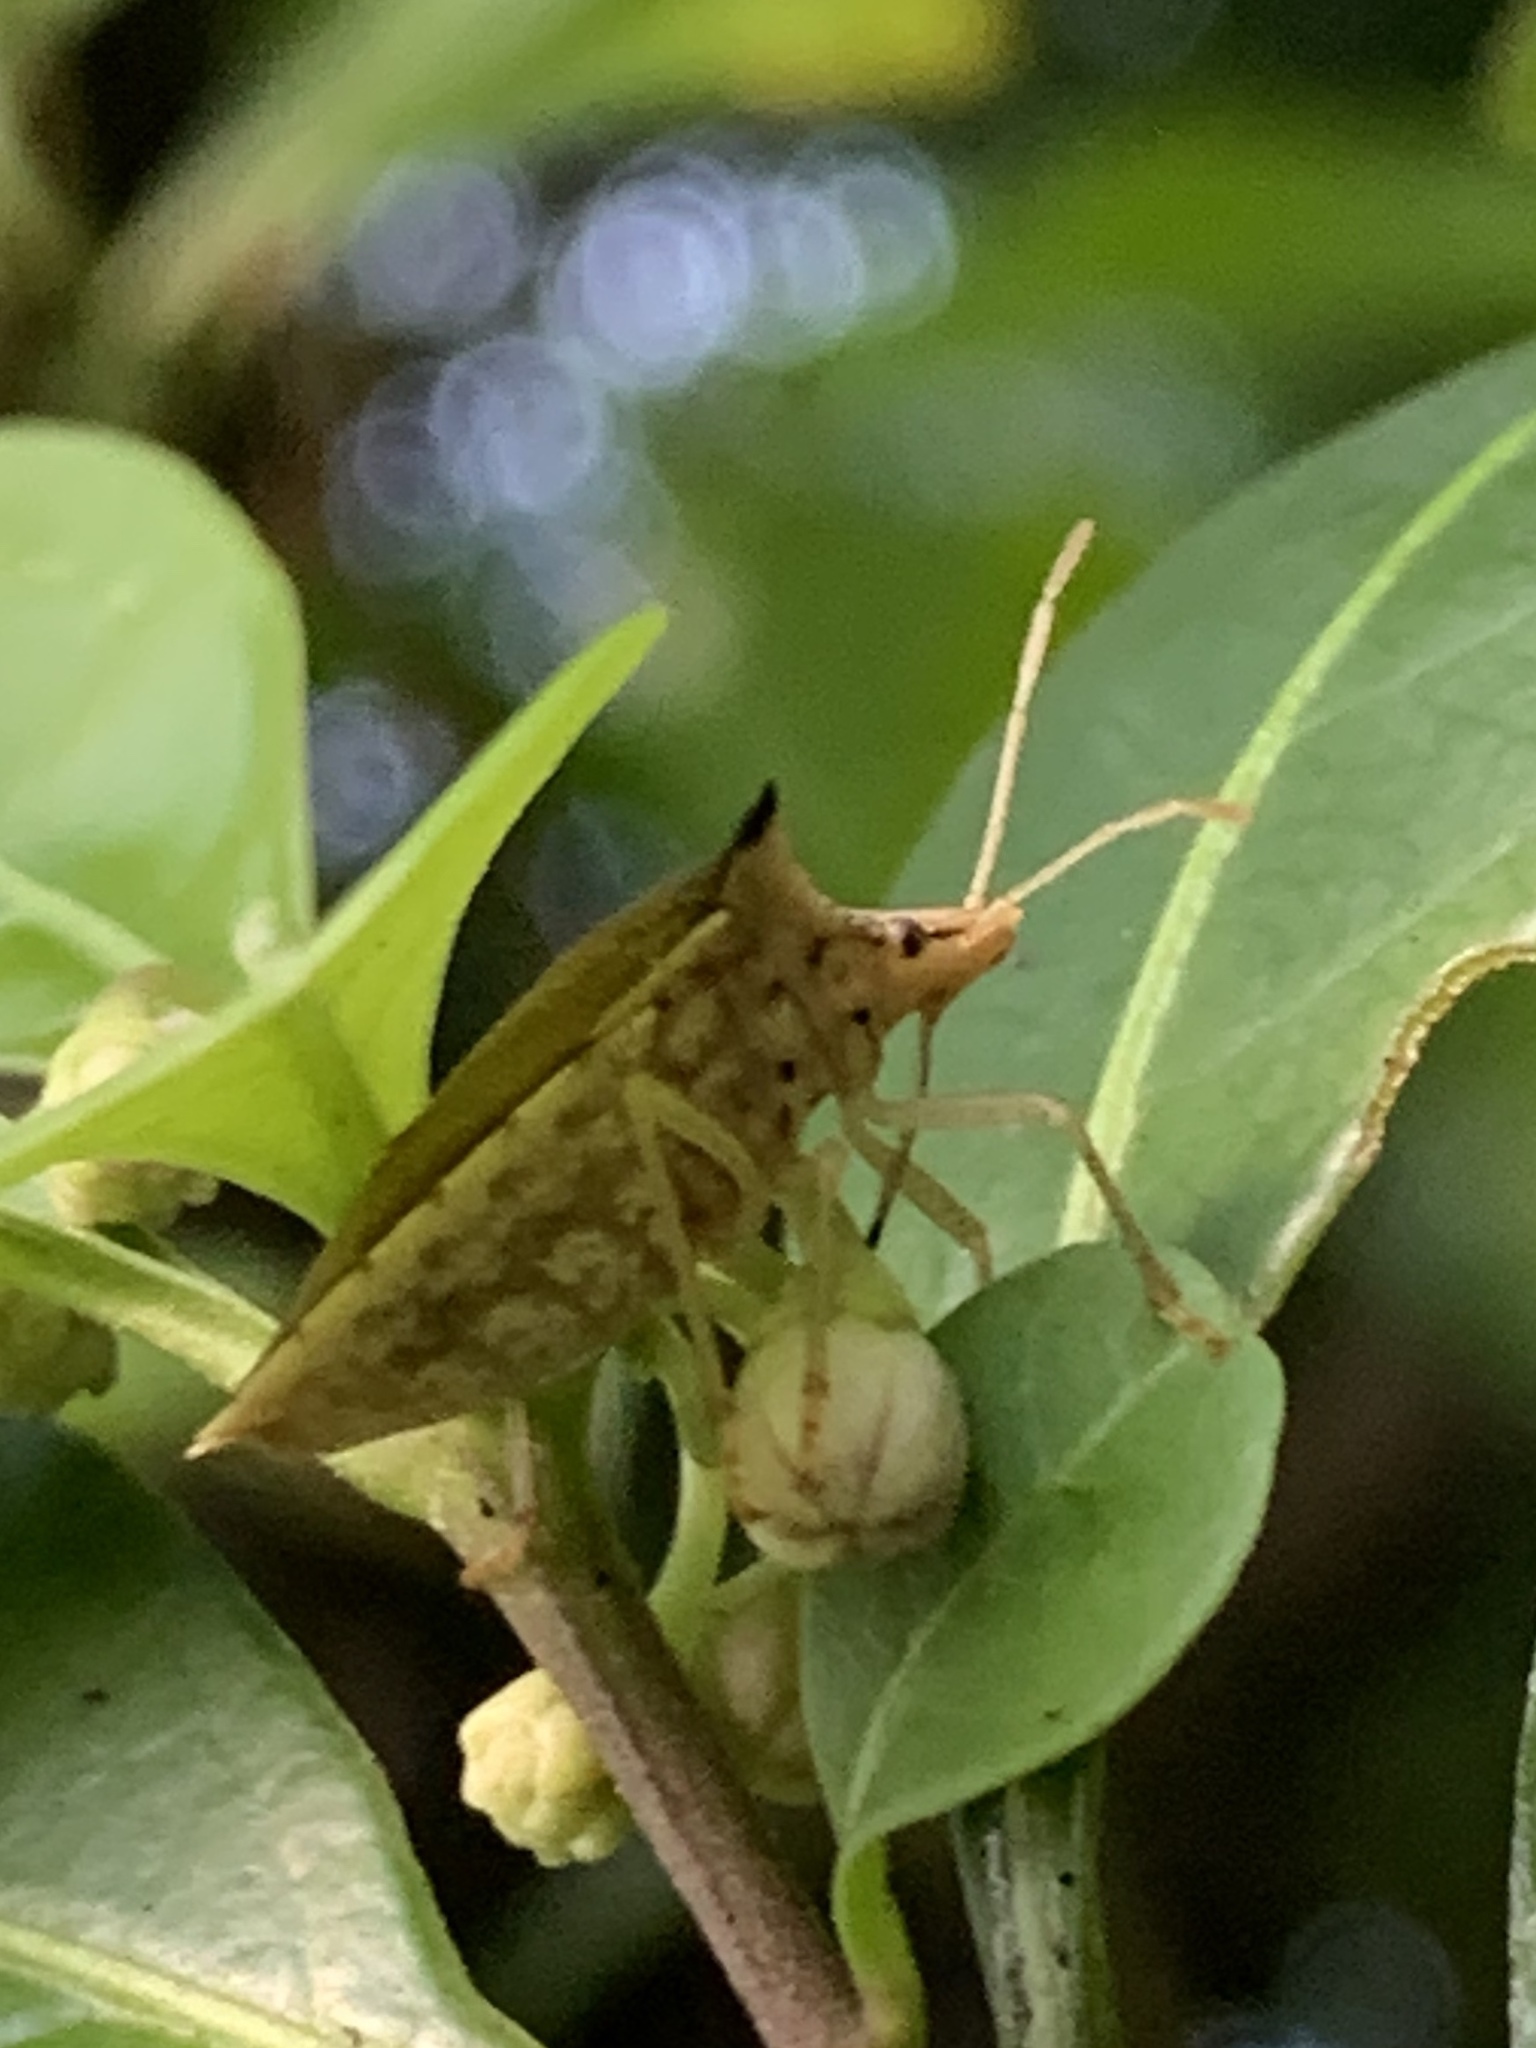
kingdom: Animalia
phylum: Arthropoda
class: Insecta
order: Hemiptera
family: Pentatomidae
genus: Euschistus
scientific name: Euschistus acuminatus
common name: Stink bug
